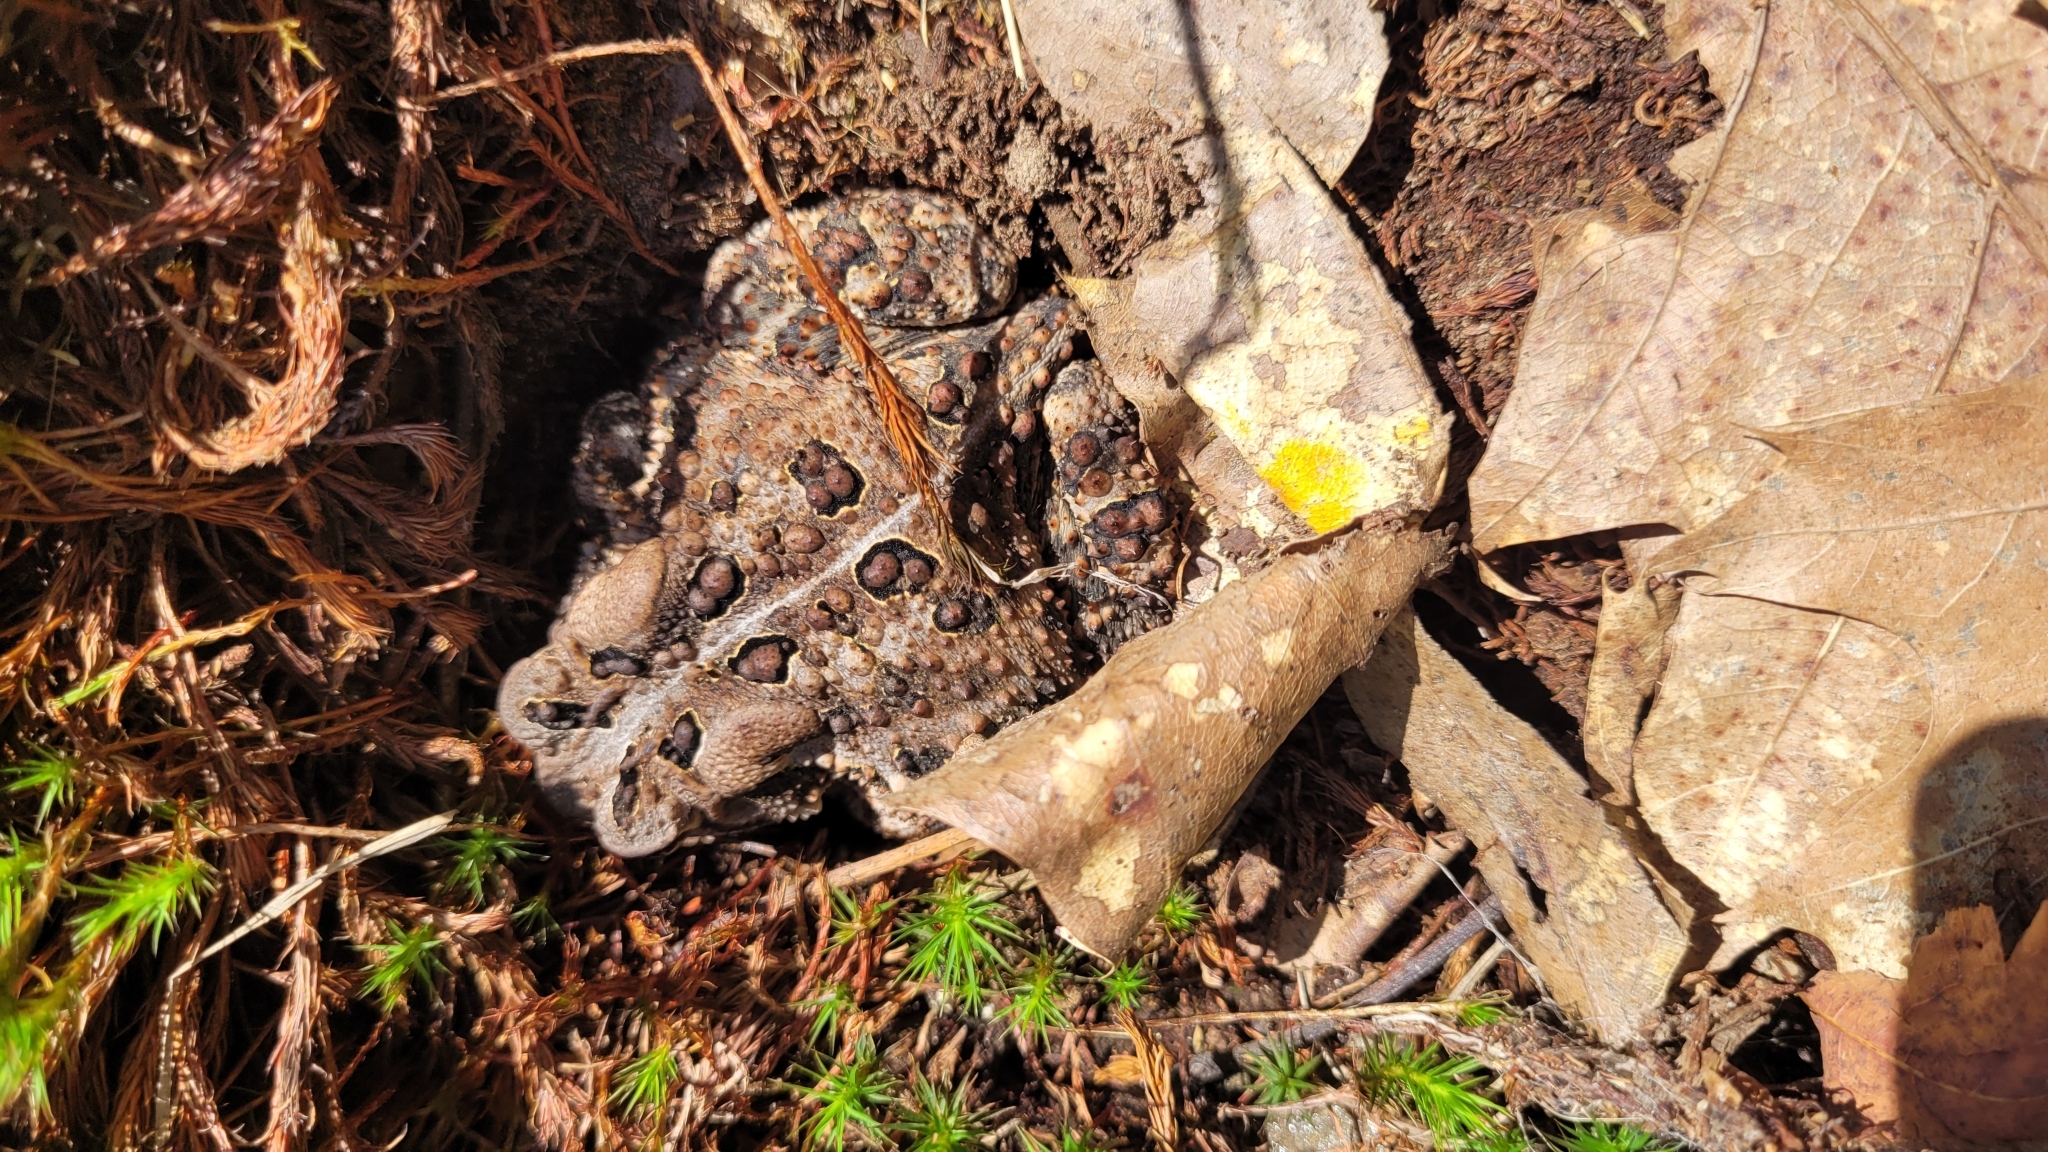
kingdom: Animalia
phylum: Chordata
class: Amphibia
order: Anura
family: Bufonidae
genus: Anaxyrus
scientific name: Anaxyrus americanus
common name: American toad
